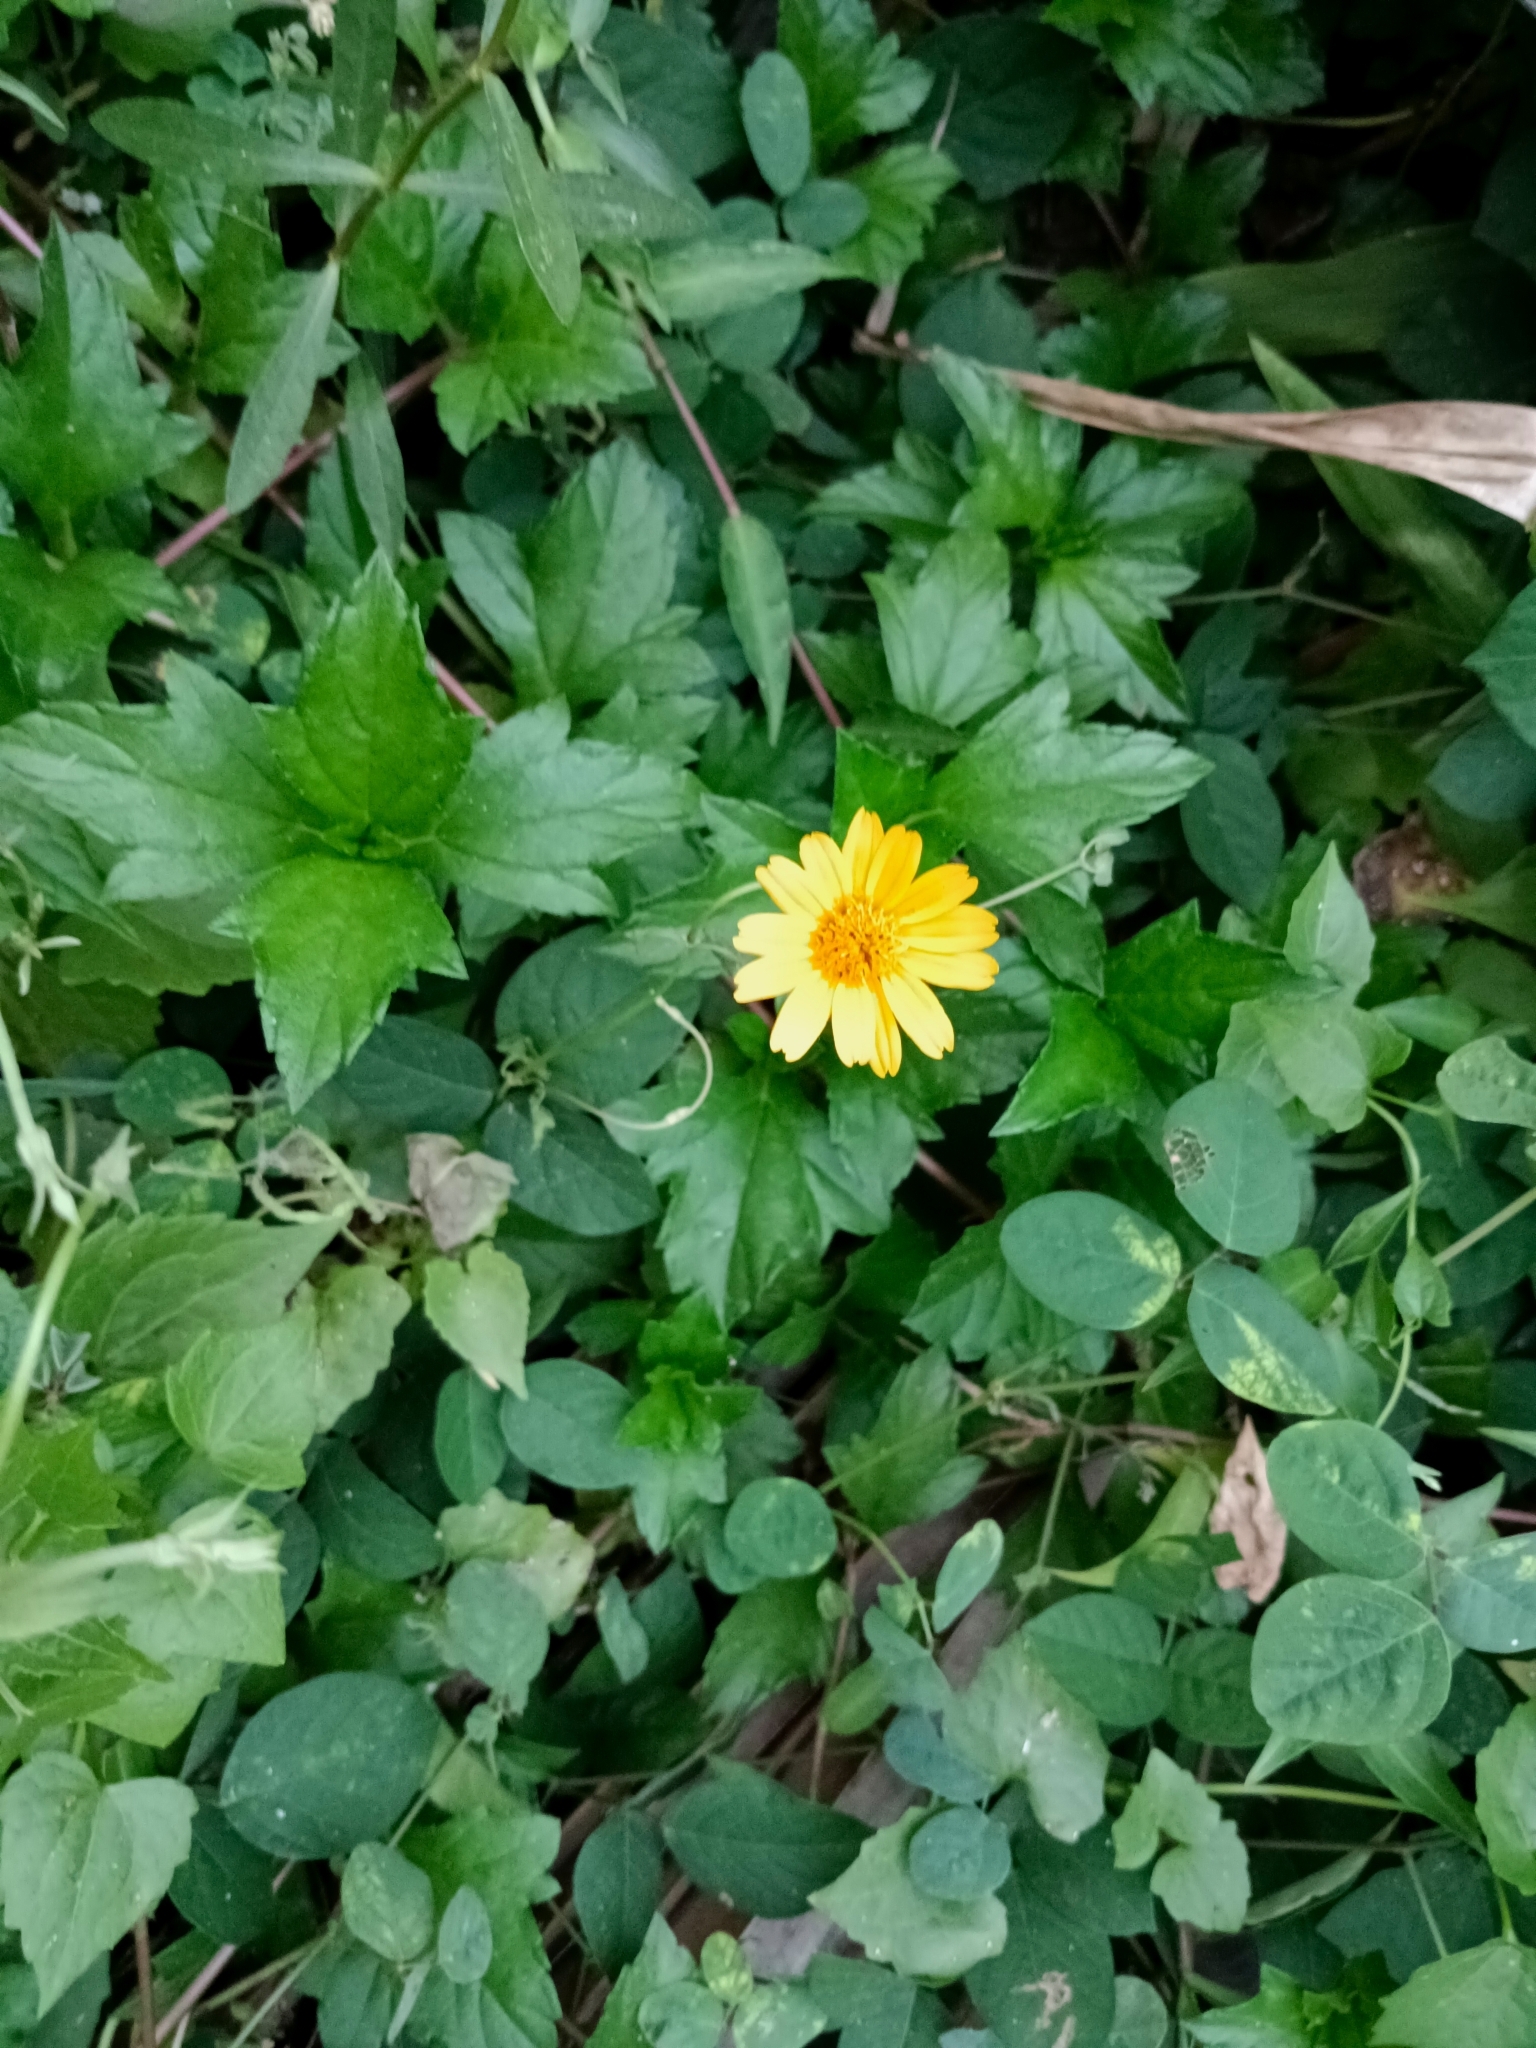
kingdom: Plantae
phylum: Tracheophyta
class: Magnoliopsida
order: Asterales
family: Asteraceae
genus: Sphagneticola
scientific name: Sphagneticola trilobata
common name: Bay biscayne creeping-oxeye
